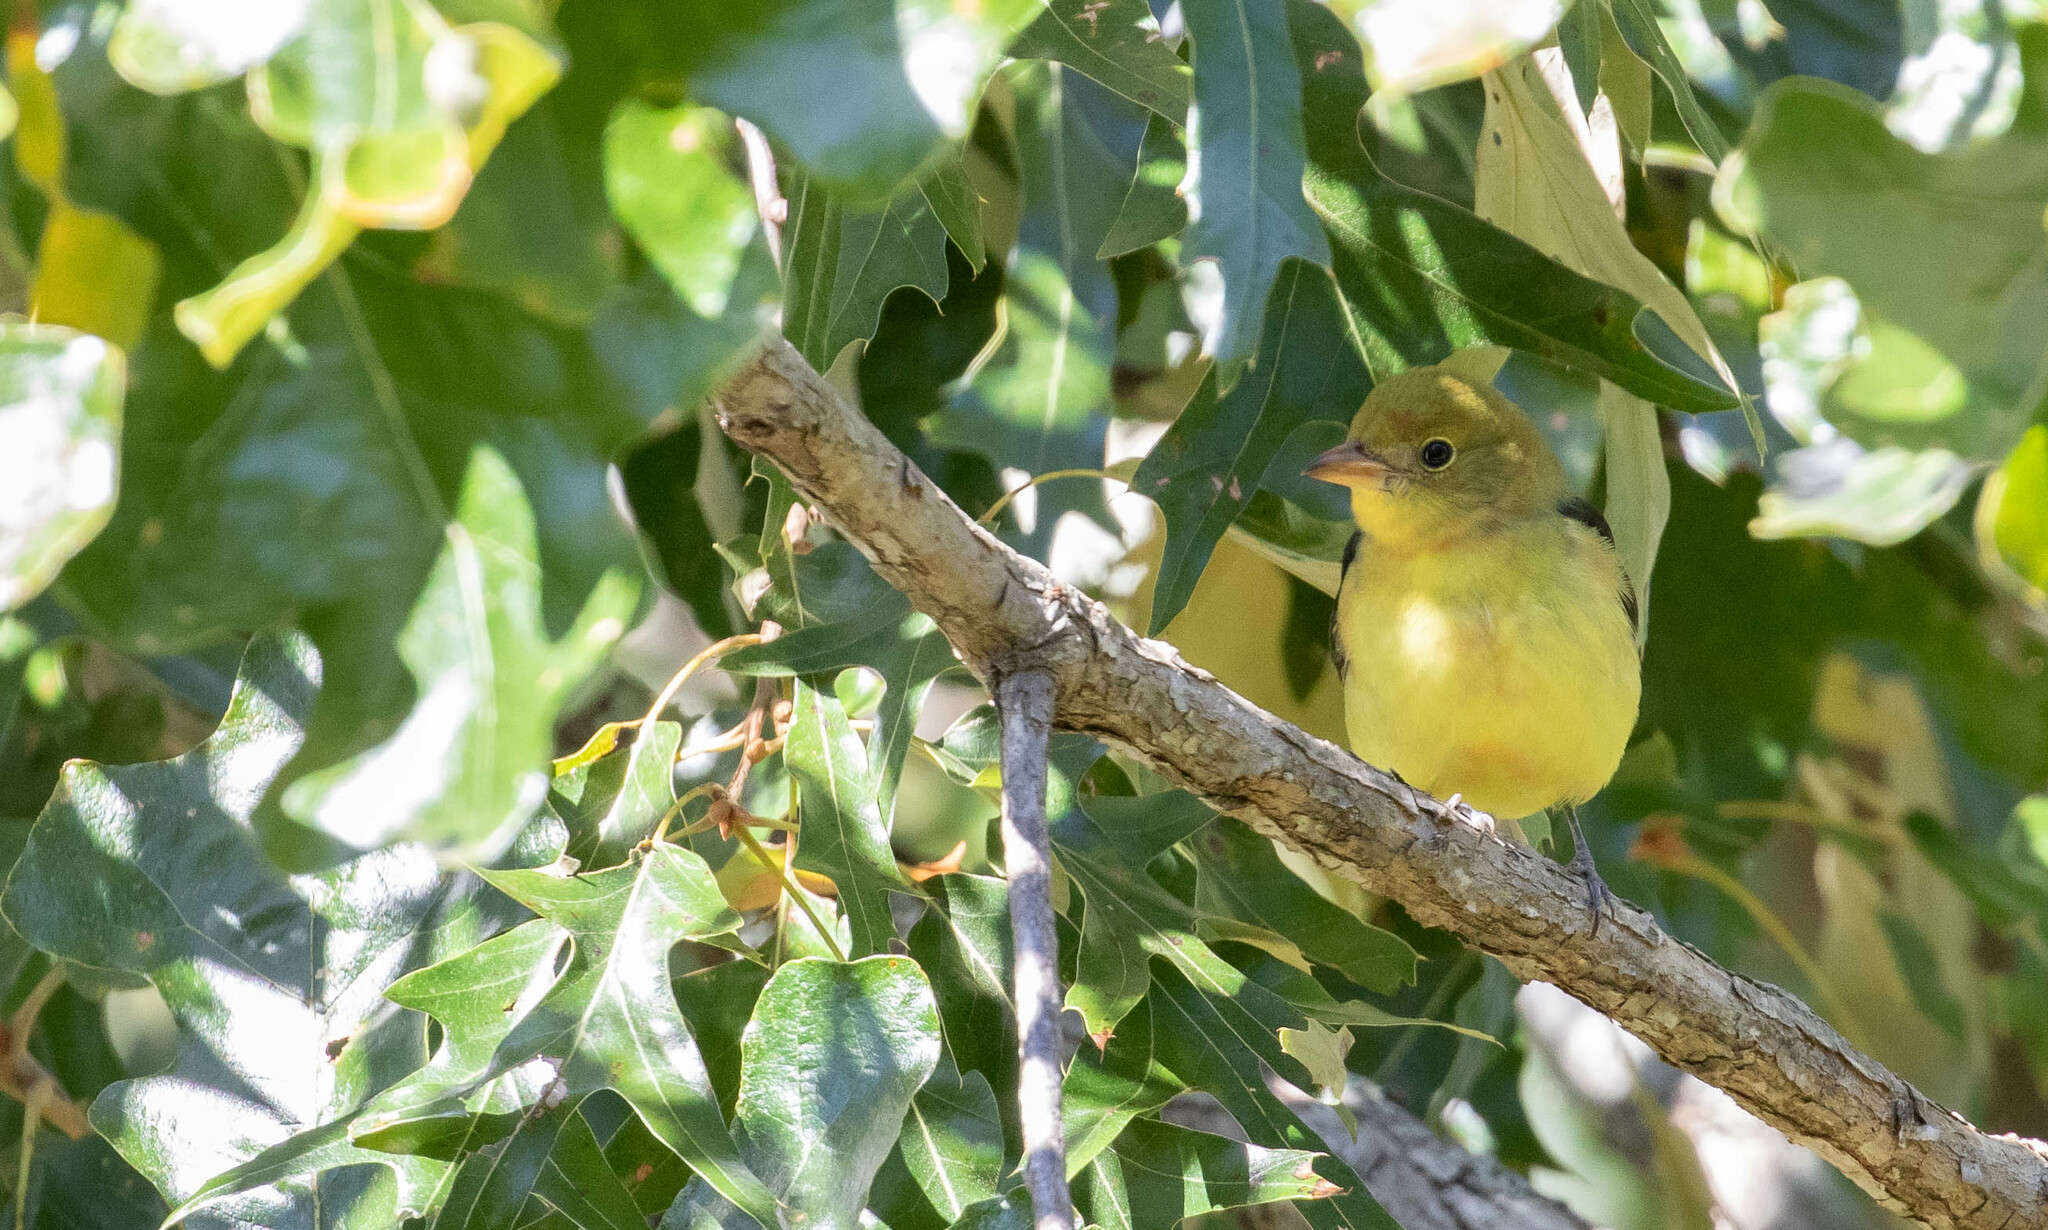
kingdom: Animalia
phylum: Chordata
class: Aves
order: Passeriformes
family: Cardinalidae
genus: Piranga
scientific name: Piranga olivacea
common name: Scarlet tanager
